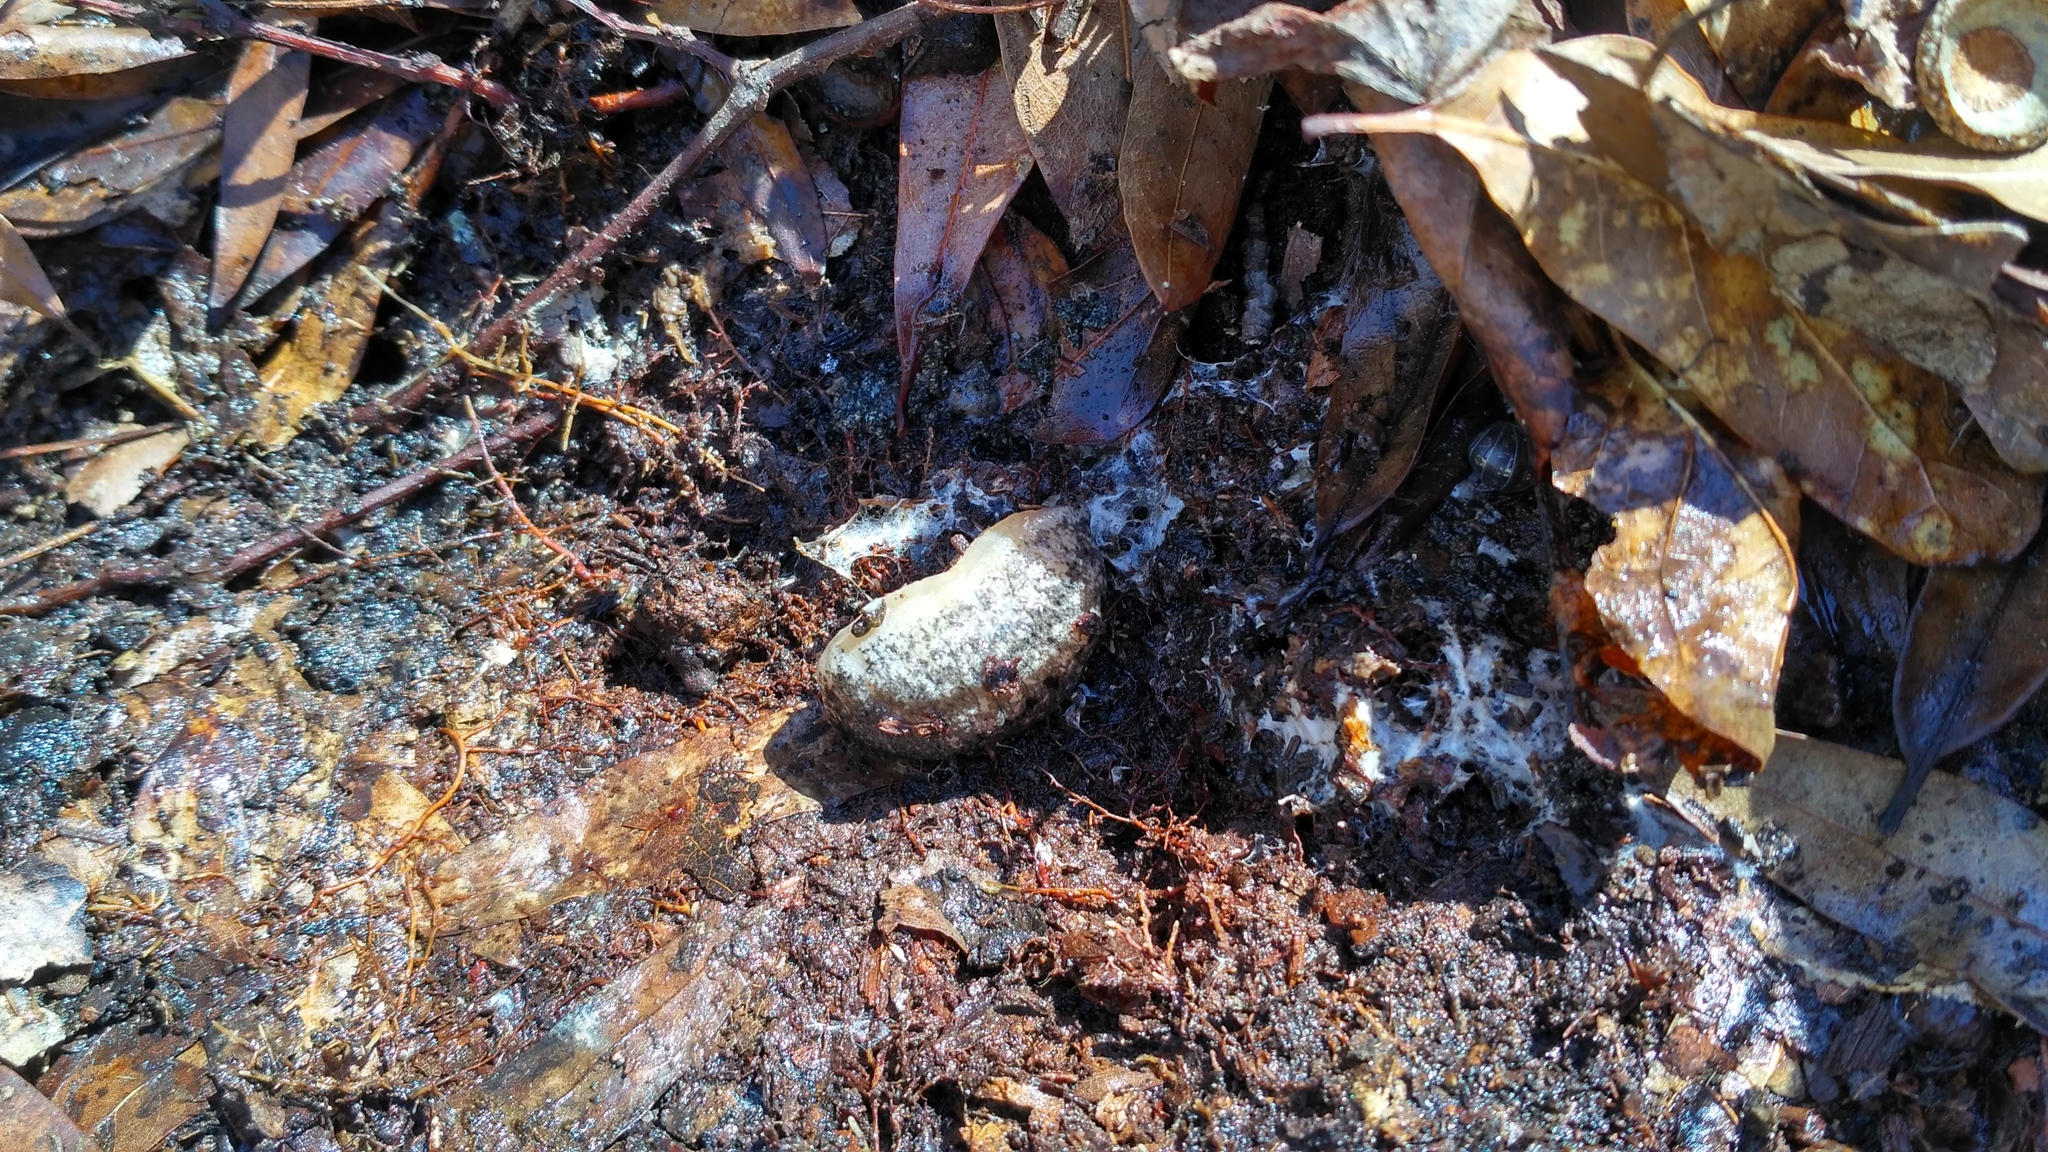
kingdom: Animalia
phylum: Mollusca
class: Gastropoda
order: Stylommatophora
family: Philomycidae
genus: Philomycus
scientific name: Philomycus carolinianus
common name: Carolina mantleslug
